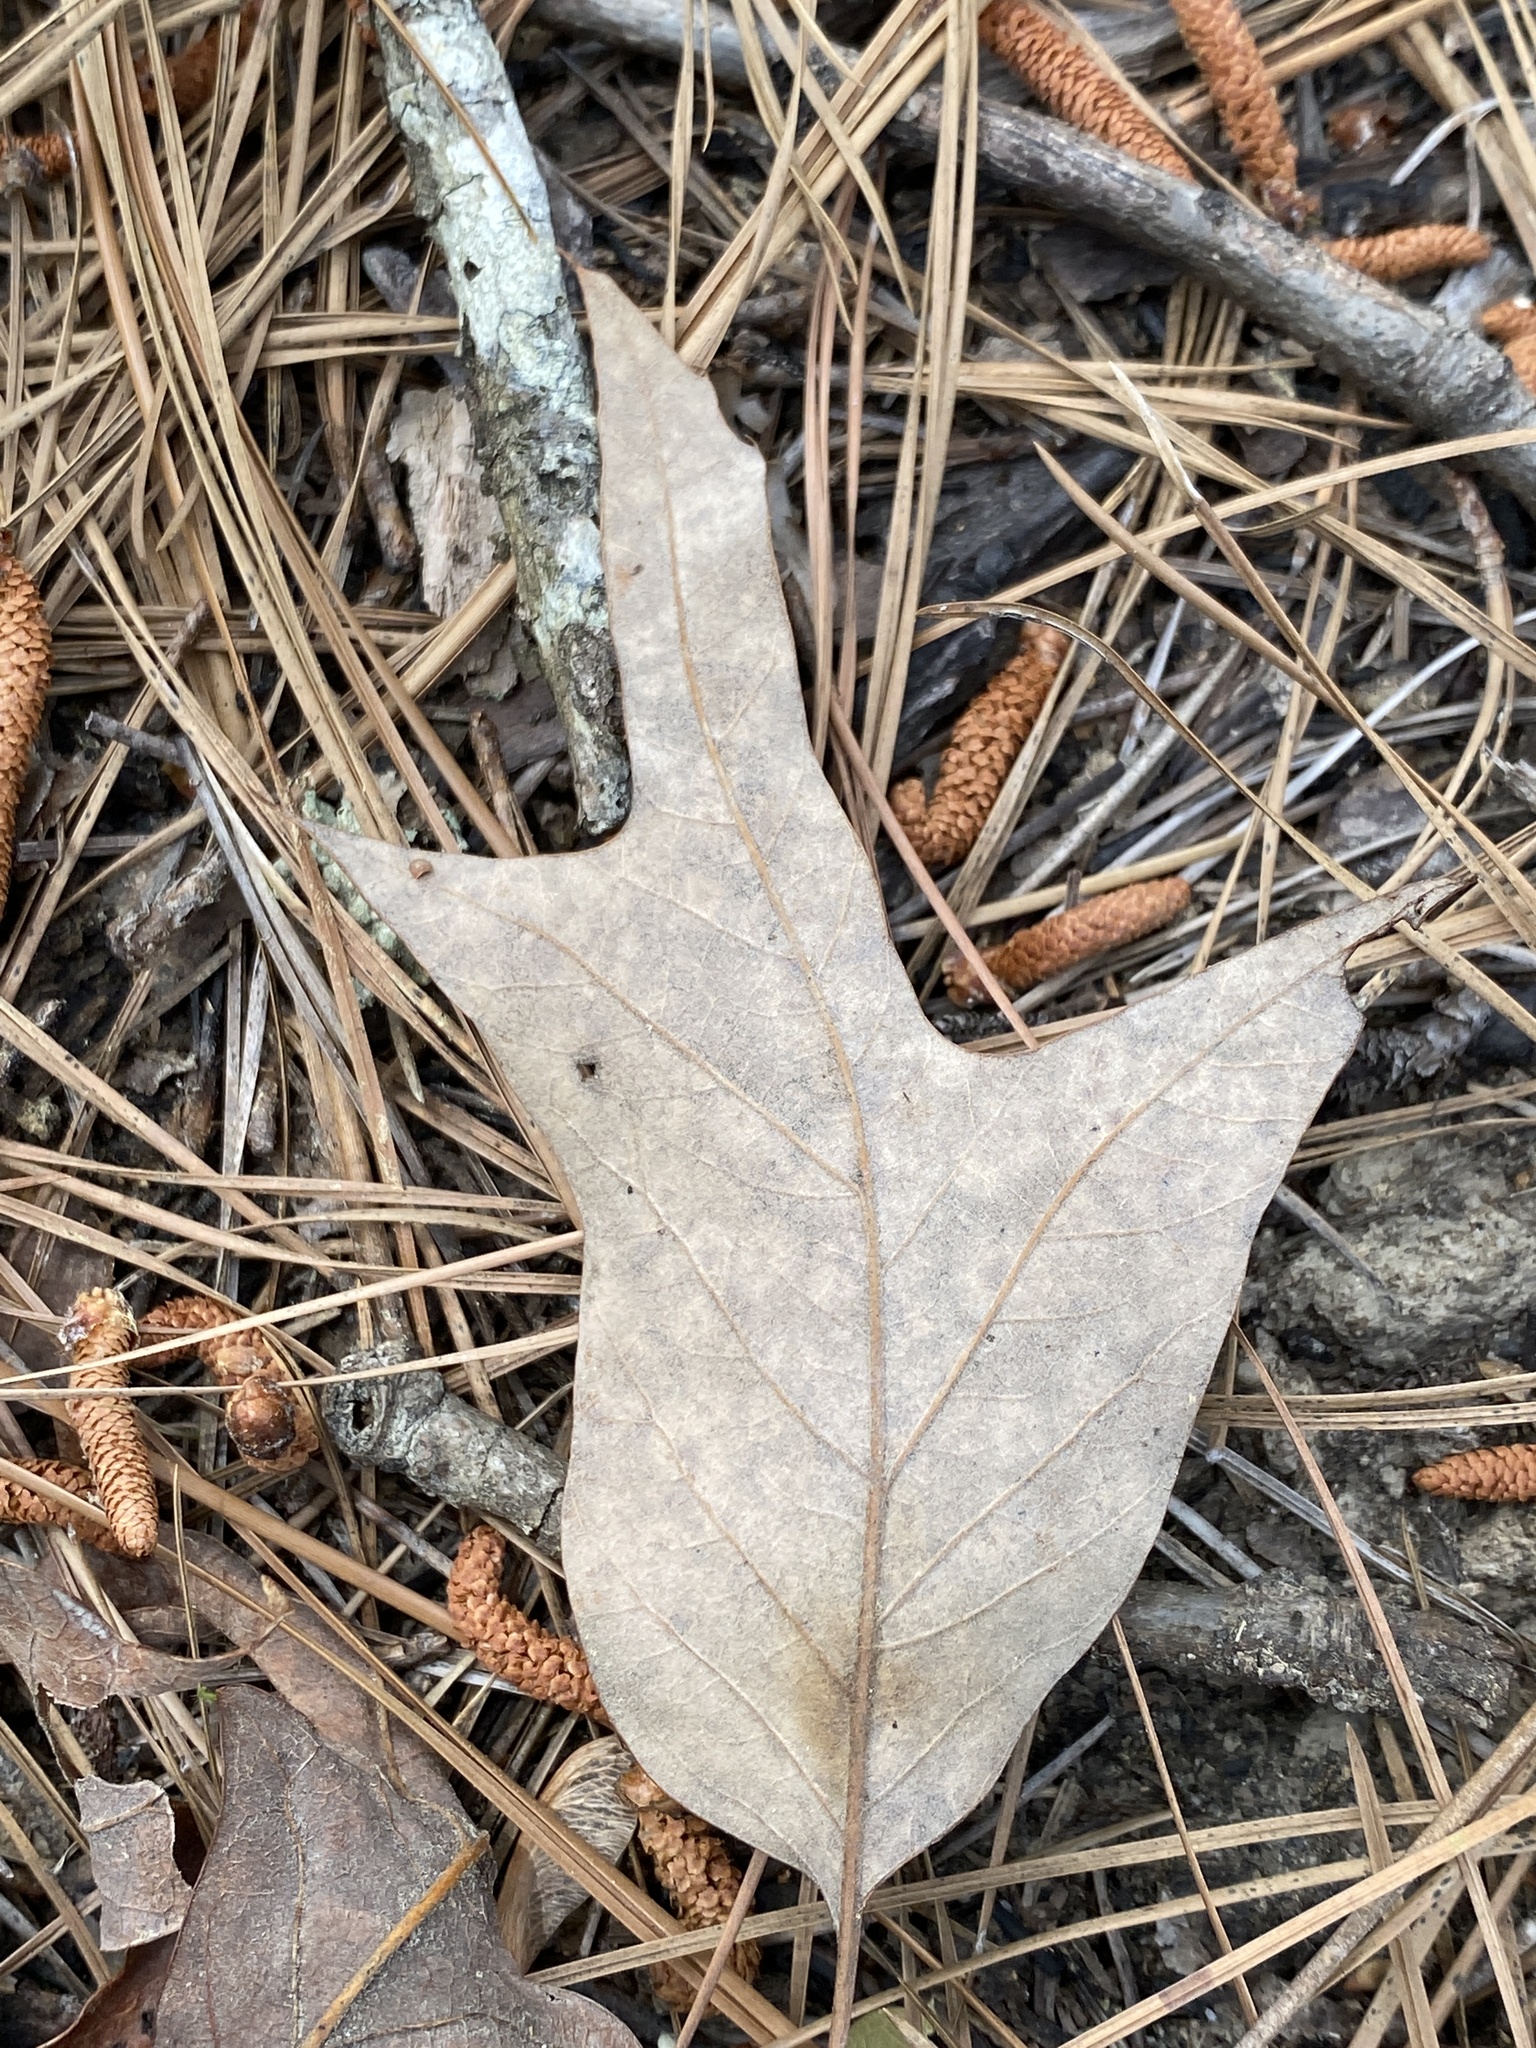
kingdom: Plantae
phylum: Tracheophyta
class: Magnoliopsida
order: Fagales
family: Fagaceae
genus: Quercus
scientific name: Quercus falcata
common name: Southern red oak
